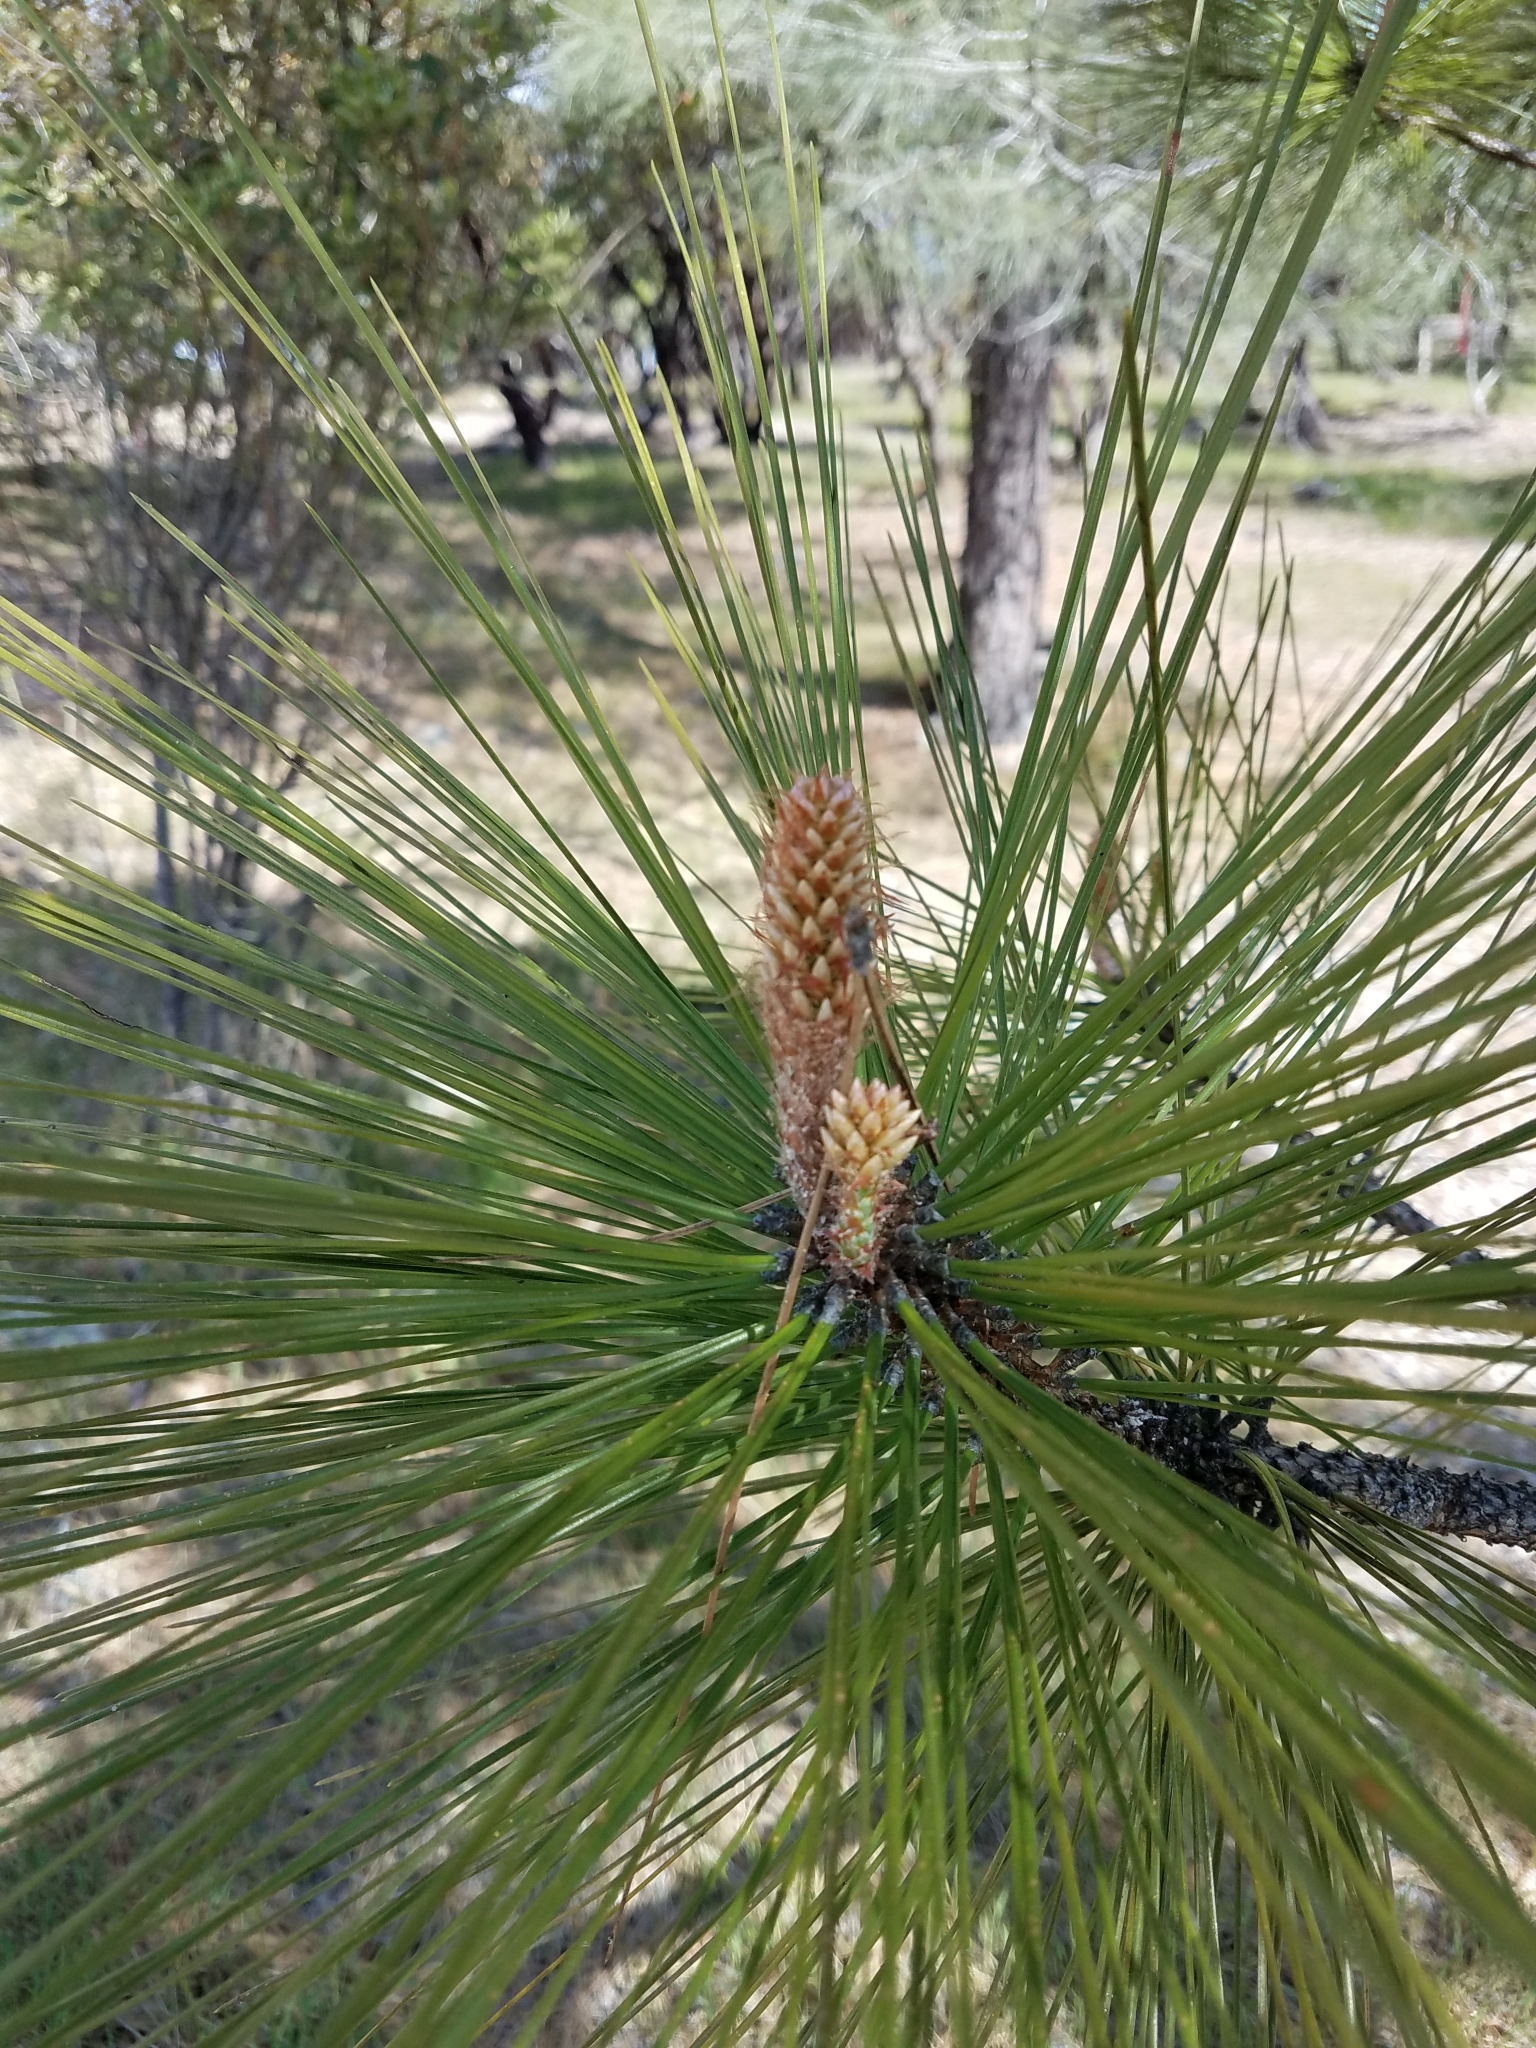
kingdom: Plantae
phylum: Tracheophyta
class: Pinopsida
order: Pinales
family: Pinaceae
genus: Pinus
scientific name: Pinus ponderosa
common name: Western yellow-pine
